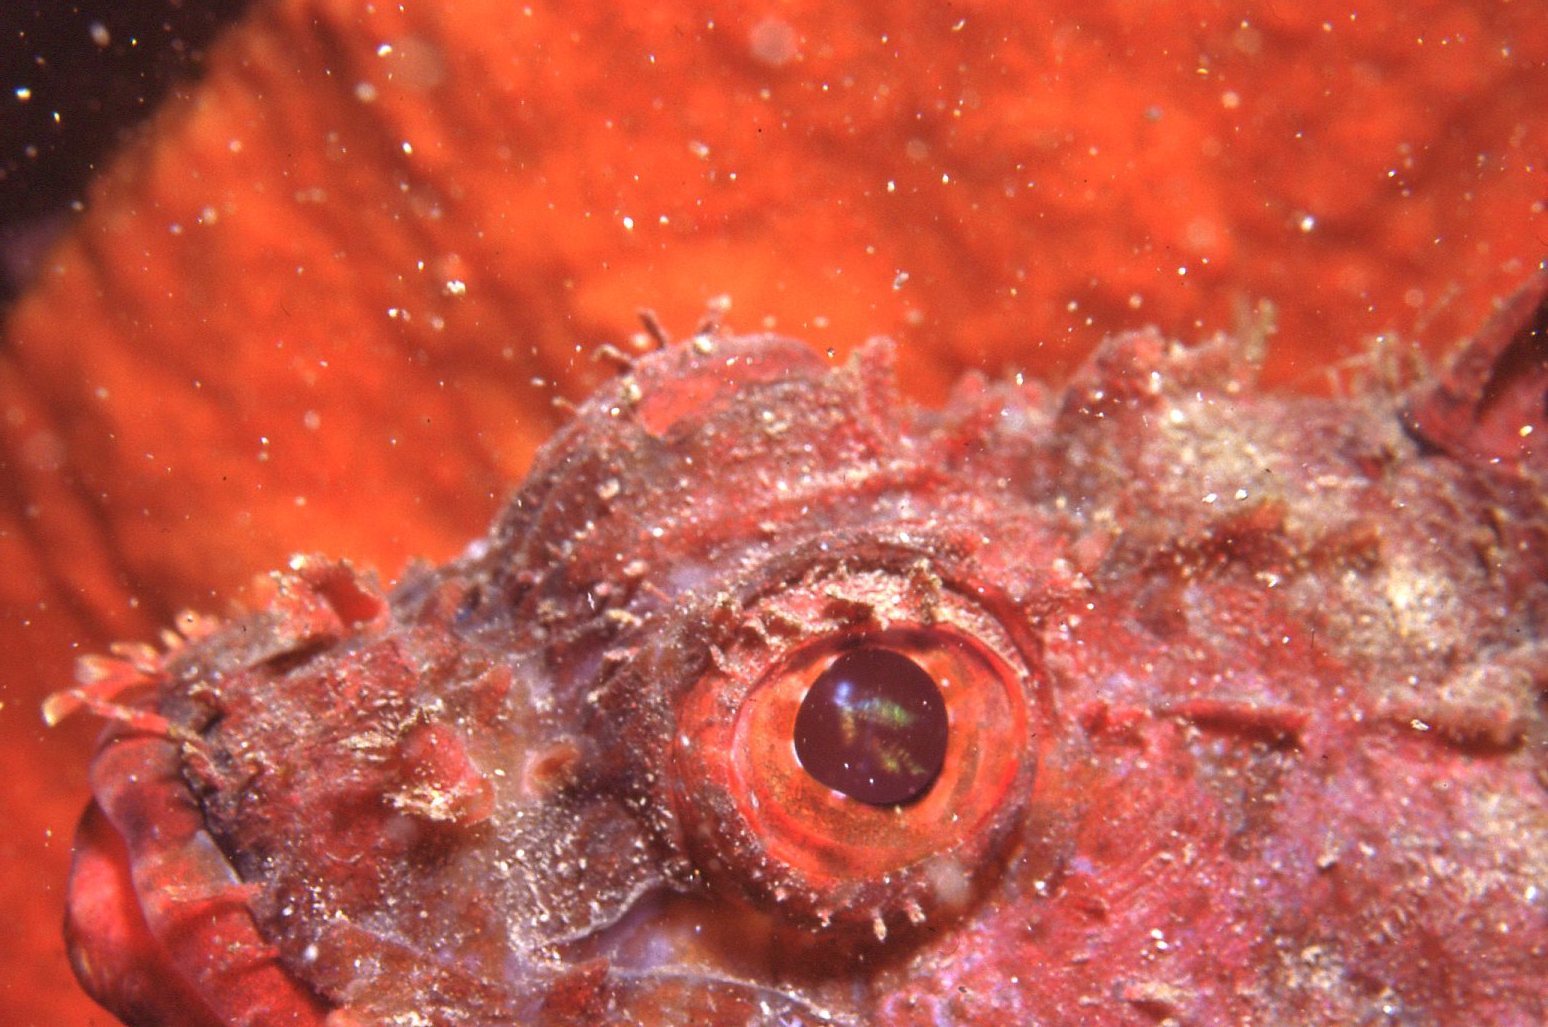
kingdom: Animalia
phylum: Chordata
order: Scorpaeniformes
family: Scorpaenidae
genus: Scorpaena
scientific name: Scorpaena jacksoniensis
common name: Eastern red scorpionfish
